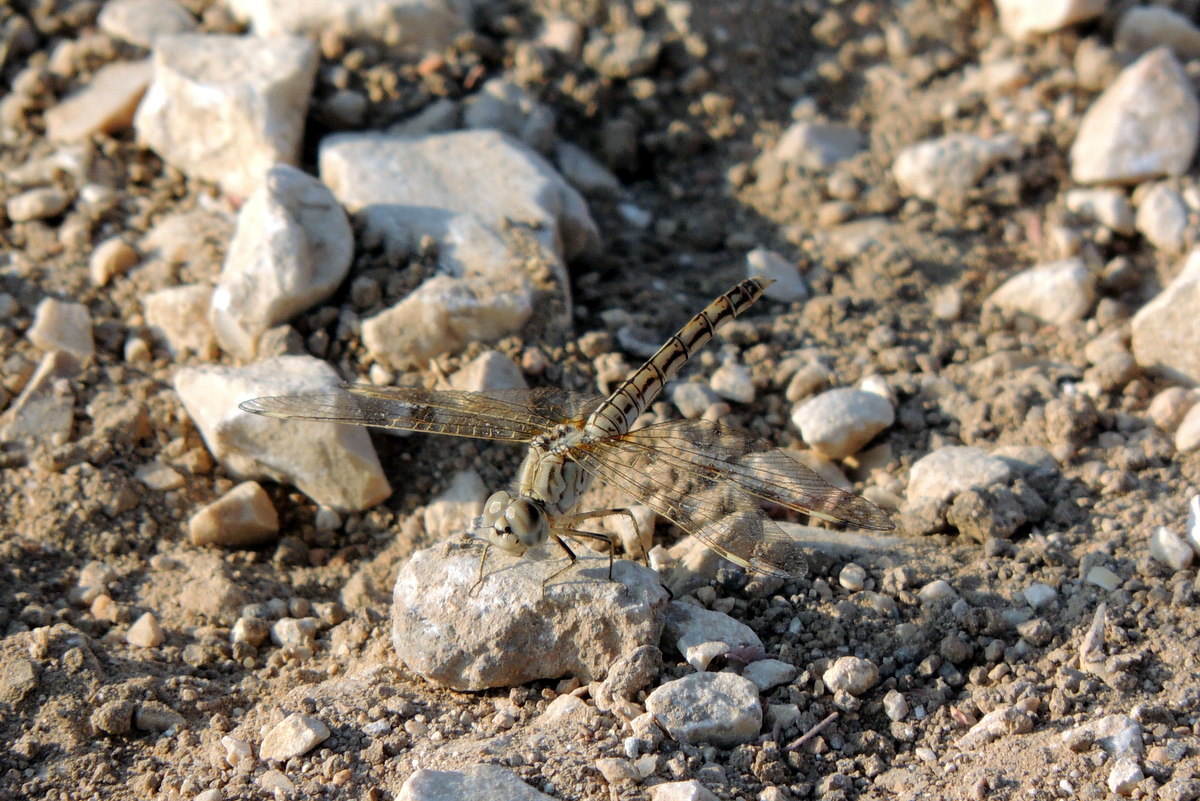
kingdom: Animalia
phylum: Arthropoda
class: Insecta
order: Odonata
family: Libellulidae
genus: Brachythemis
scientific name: Brachythemis impartita
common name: Banded groundling
